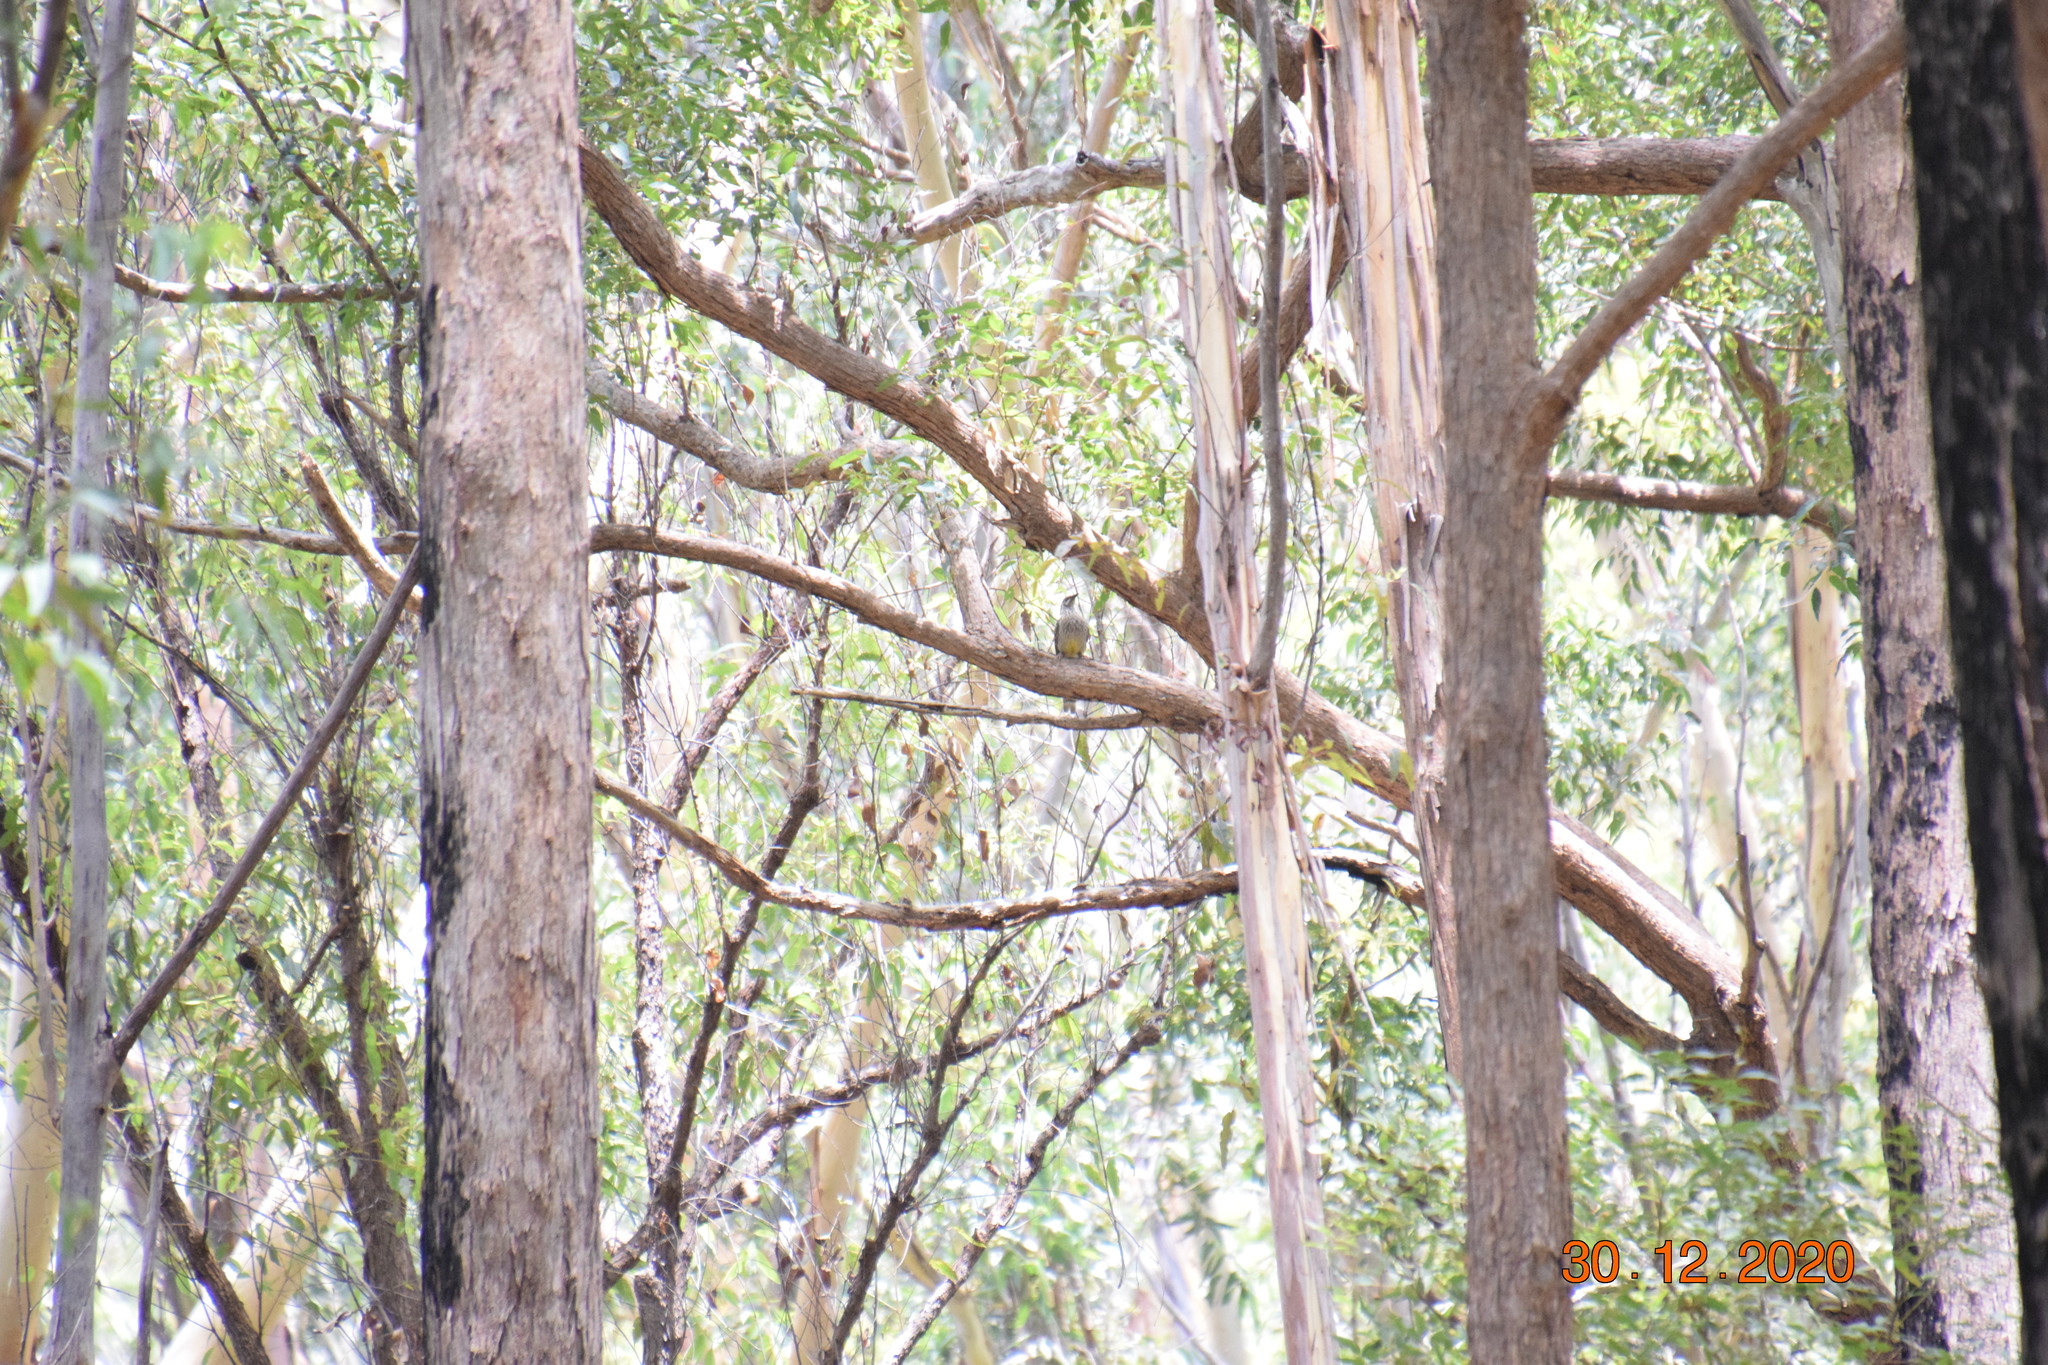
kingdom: Animalia
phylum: Chordata
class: Aves
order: Passeriformes
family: Meliphagidae
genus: Anthochaera
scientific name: Anthochaera carunculata
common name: Red wattlebird
